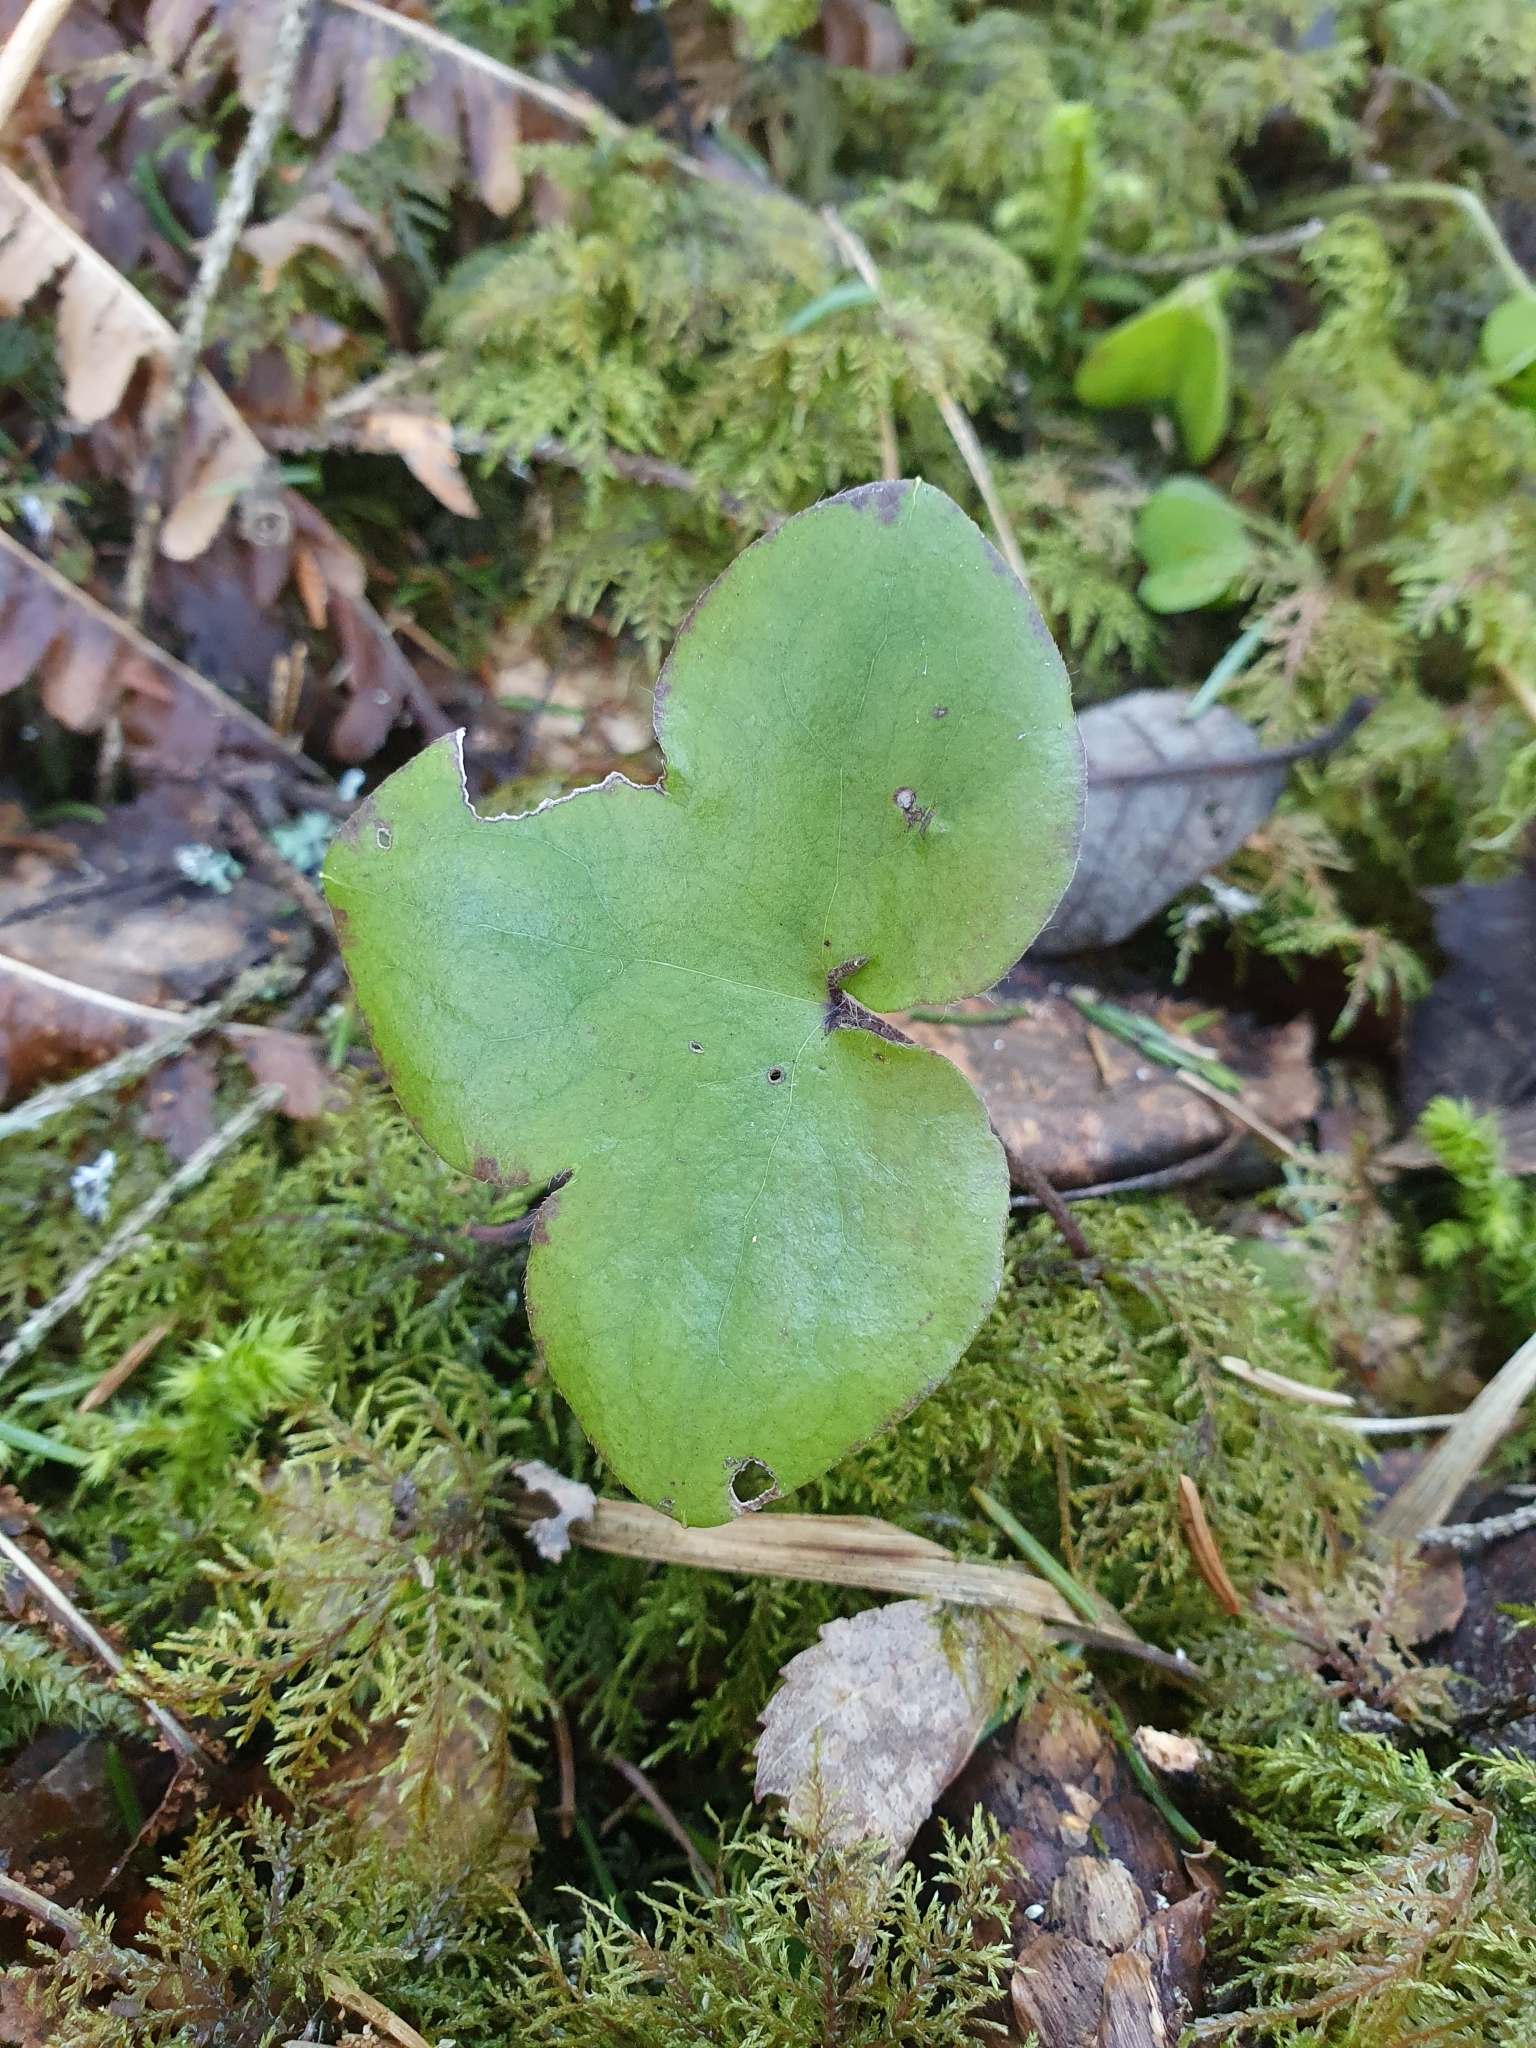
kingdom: Plantae
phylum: Tracheophyta
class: Magnoliopsida
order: Ranunculales
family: Ranunculaceae
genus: Hepatica
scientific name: Hepatica nobilis
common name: Liverleaf
